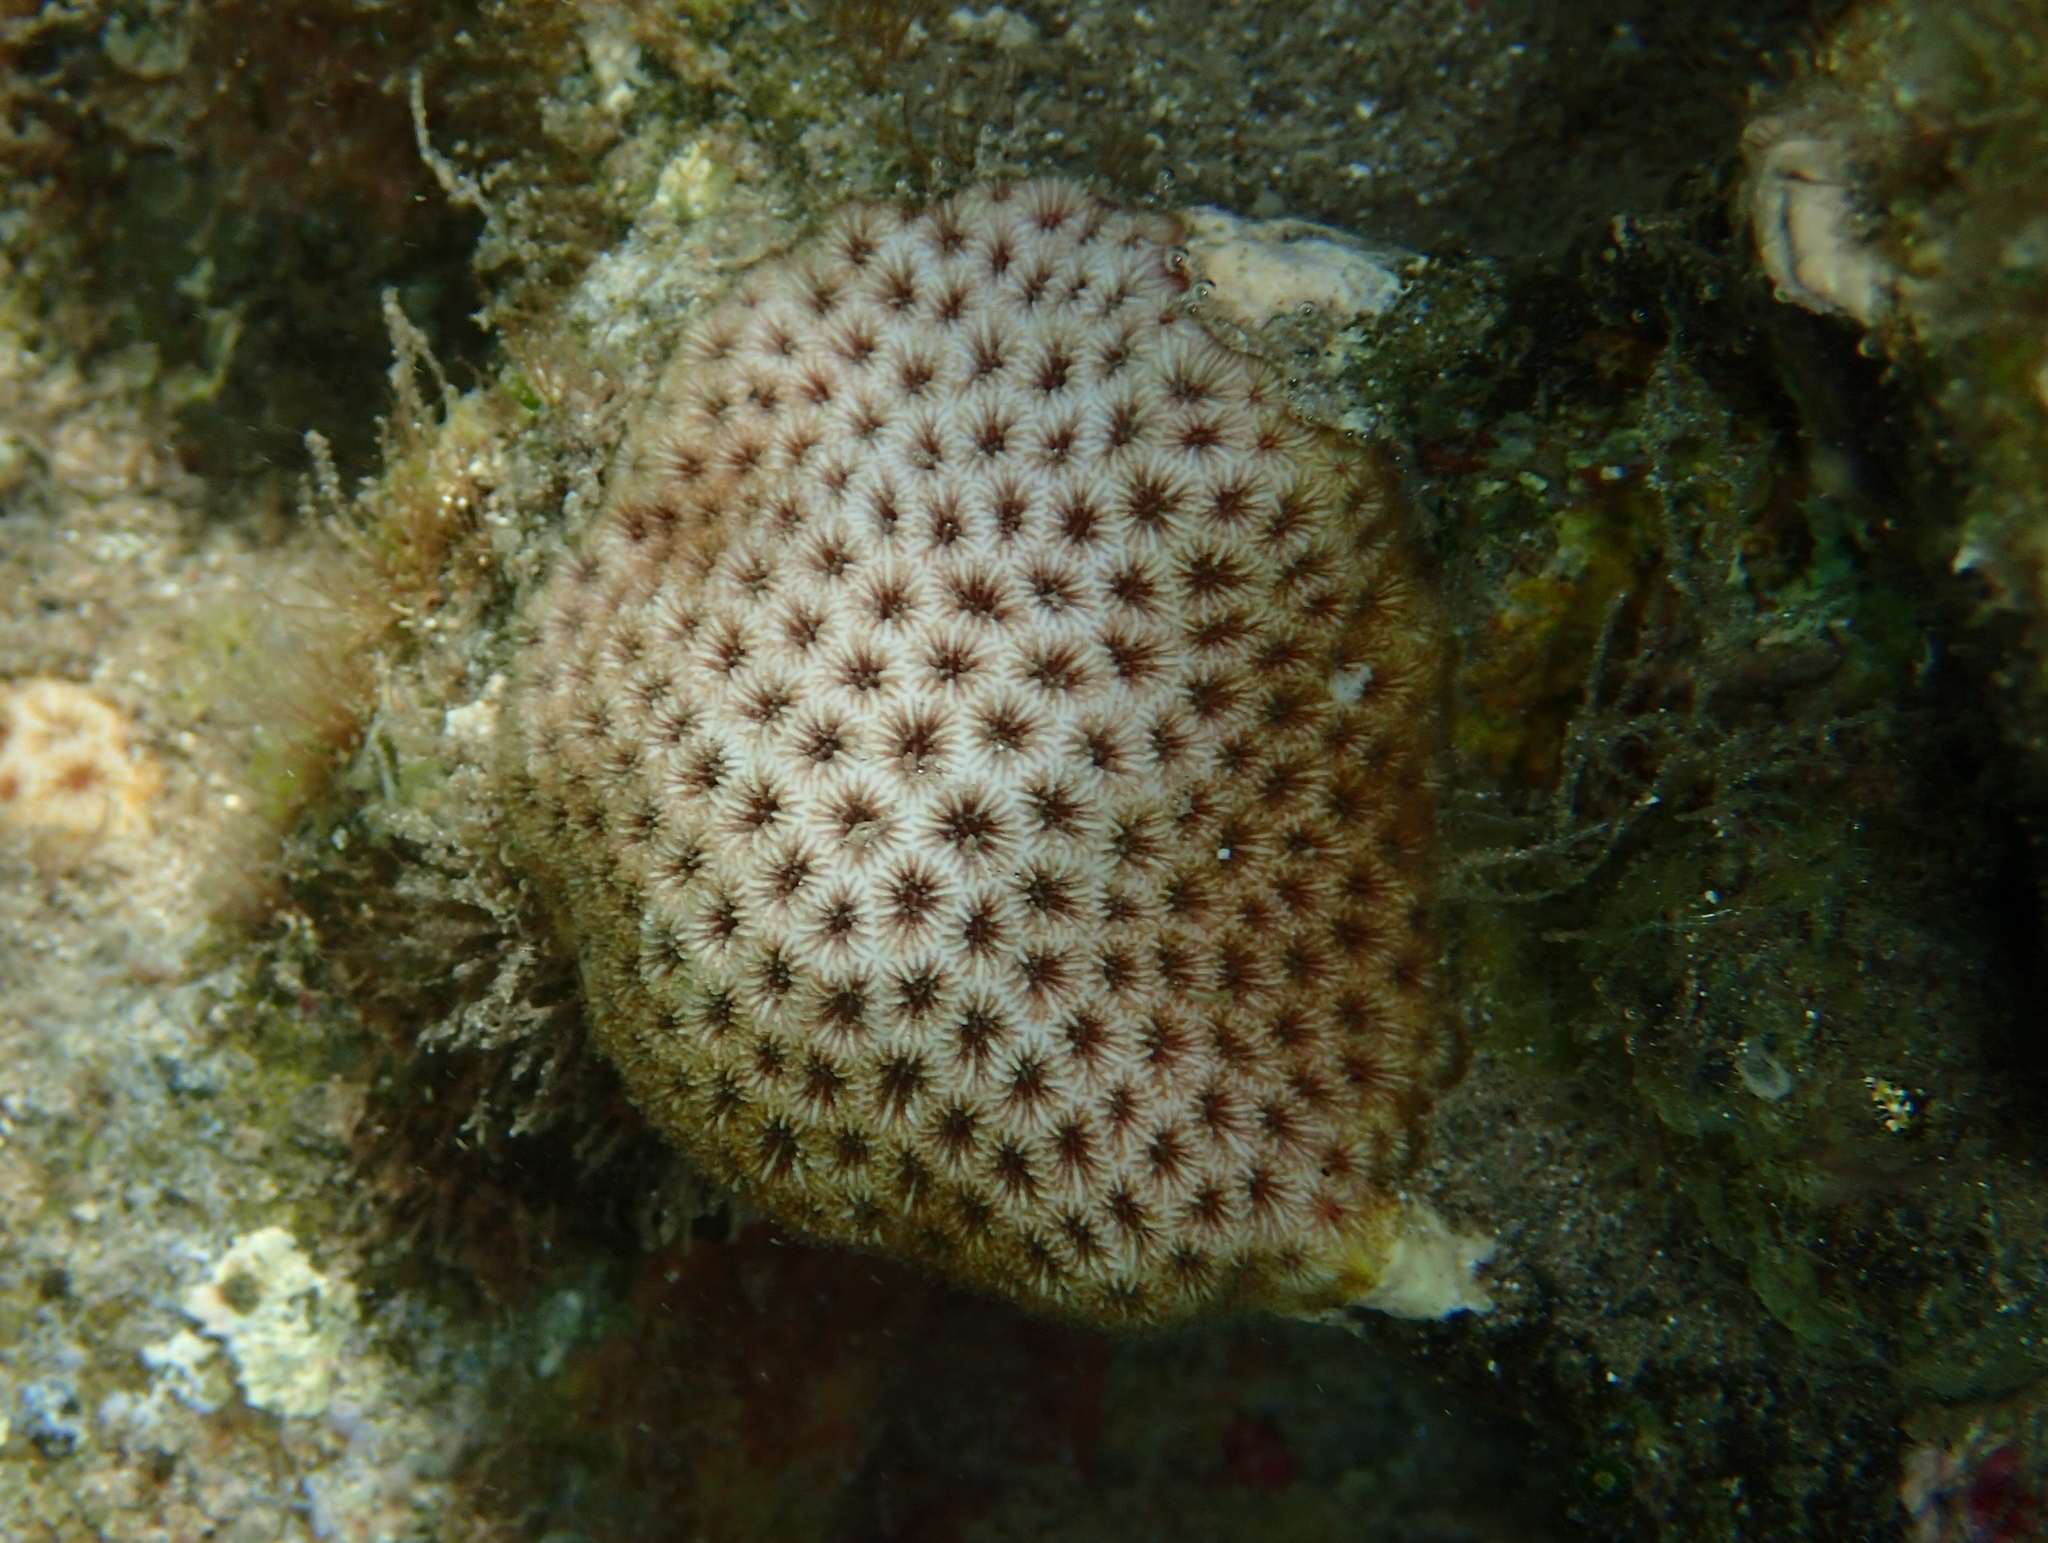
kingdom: Animalia
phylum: Cnidaria
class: Anthozoa
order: Scleractinia
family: Rhizangiidae
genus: Siderastrea
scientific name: Siderastrea radians
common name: Lesser starlet coral
